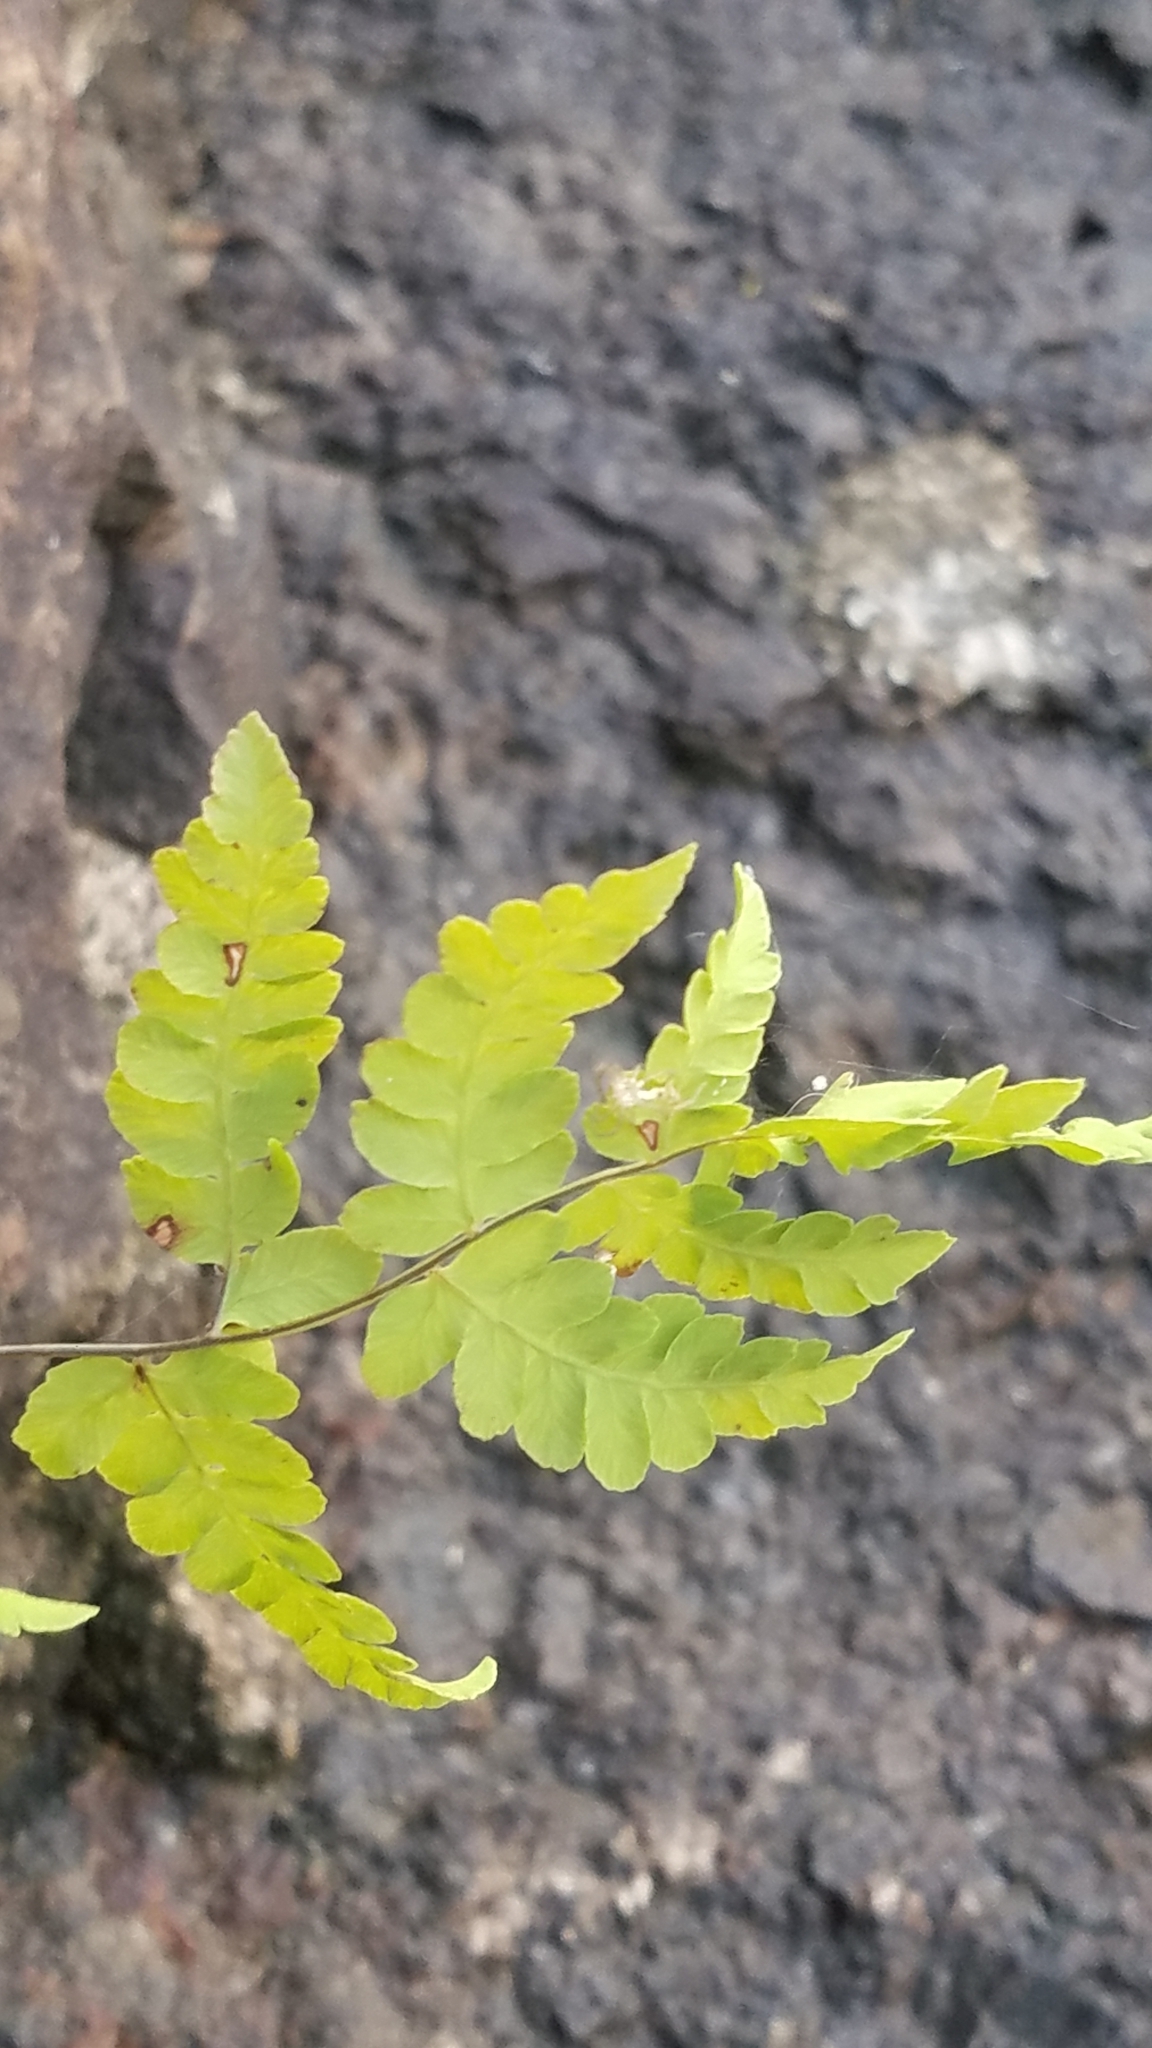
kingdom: Plantae
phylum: Tracheophyta
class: Polypodiopsida
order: Polypodiales
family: Thelypteridaceae
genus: Thelypteris
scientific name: Thelypteris palustris
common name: Marsh fern
